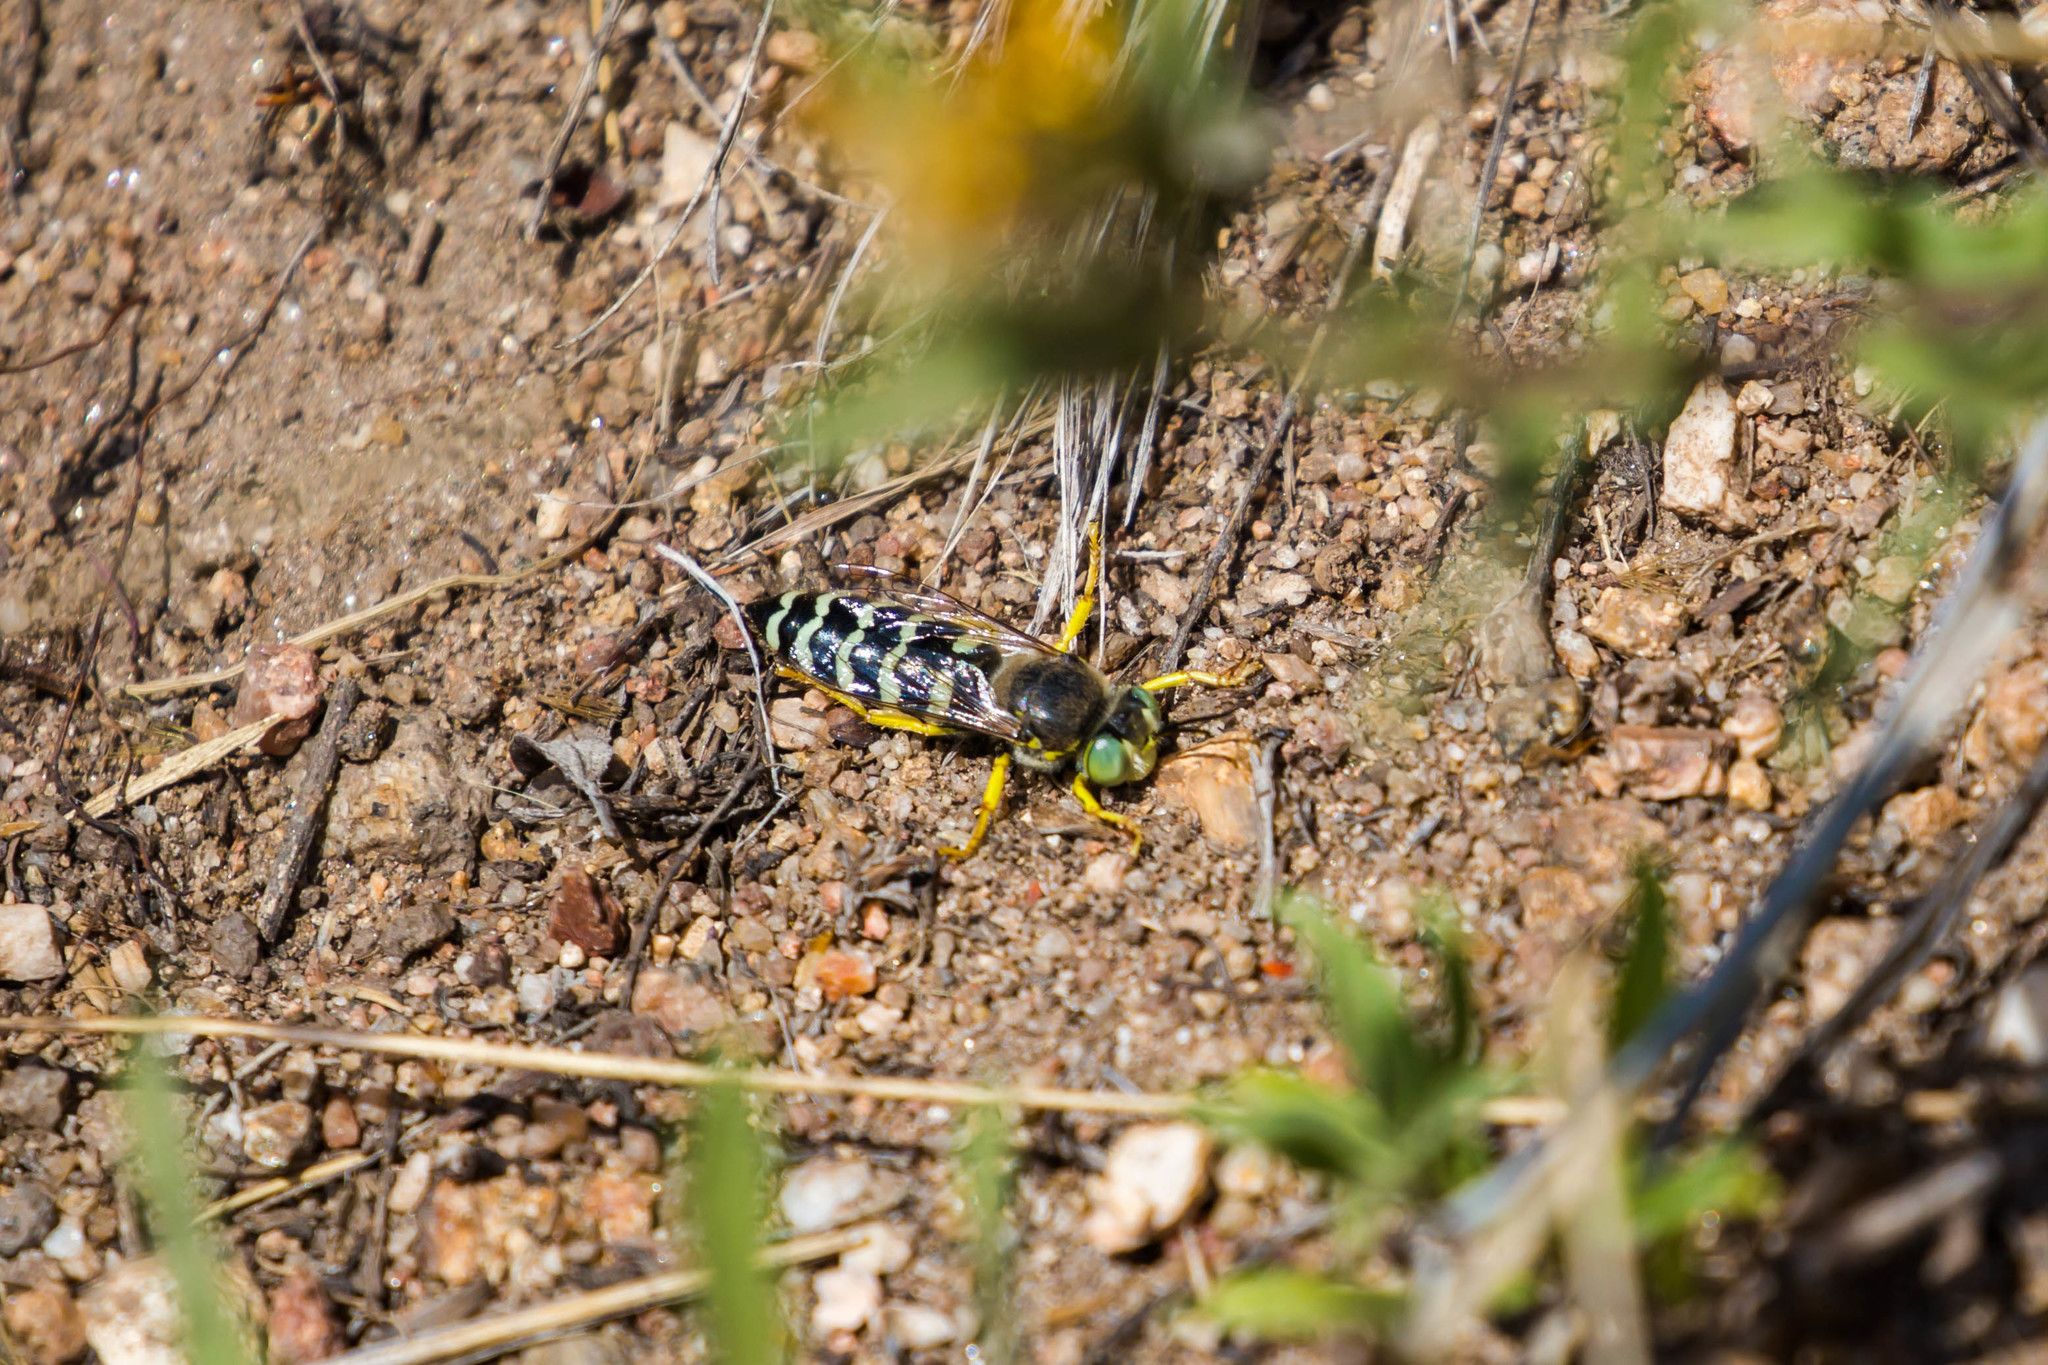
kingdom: Animalia
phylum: Arthropoda
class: Insecta
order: Hymenoptera
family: Crabronidae
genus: Bembix
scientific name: Bembix americana
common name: American sand wasp
